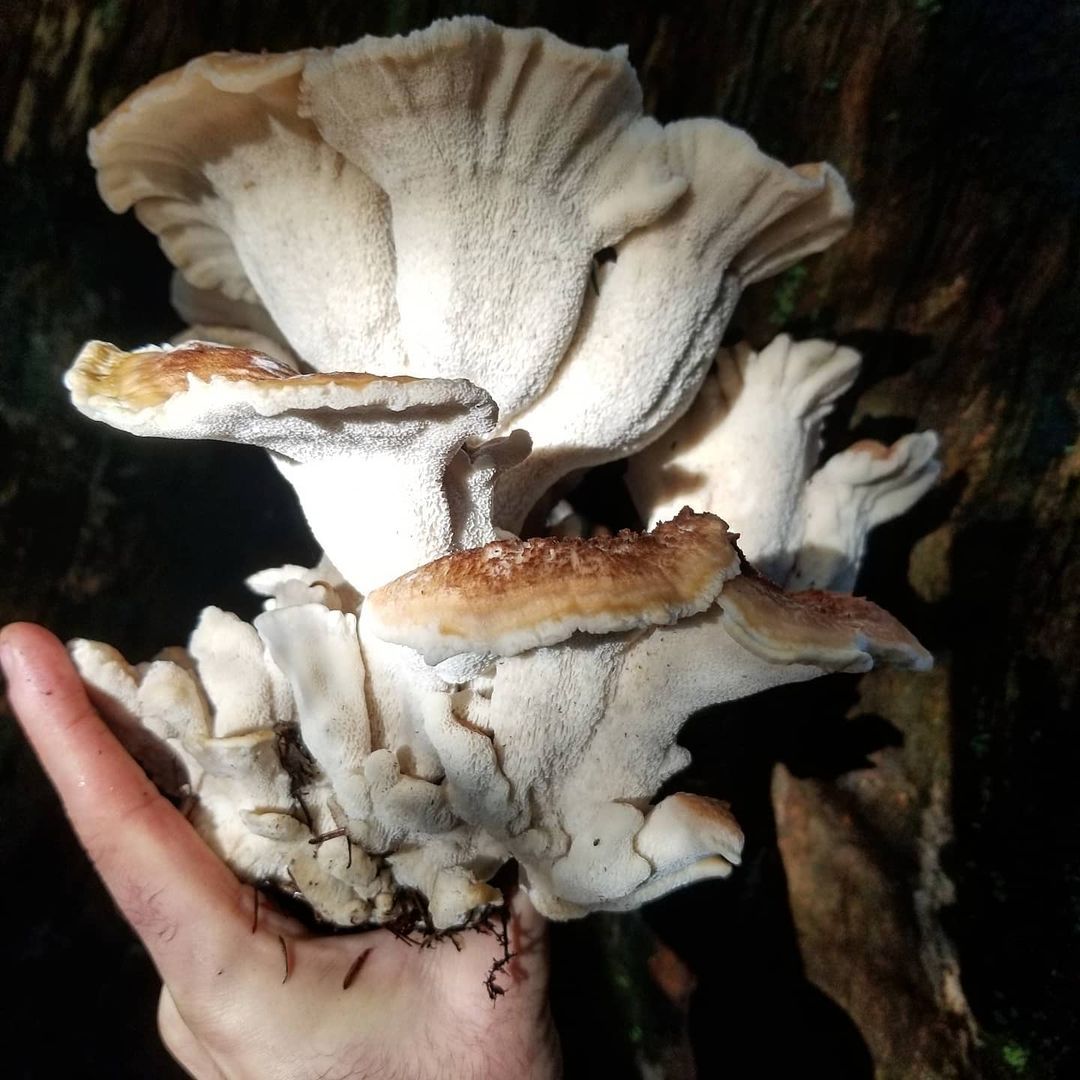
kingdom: Fungi
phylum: Basidiomycota
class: Agaricomycetes
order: Russulales
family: Bondarzewiaceae
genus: Bondarzewia
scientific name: Bondarzewia occidentalis
